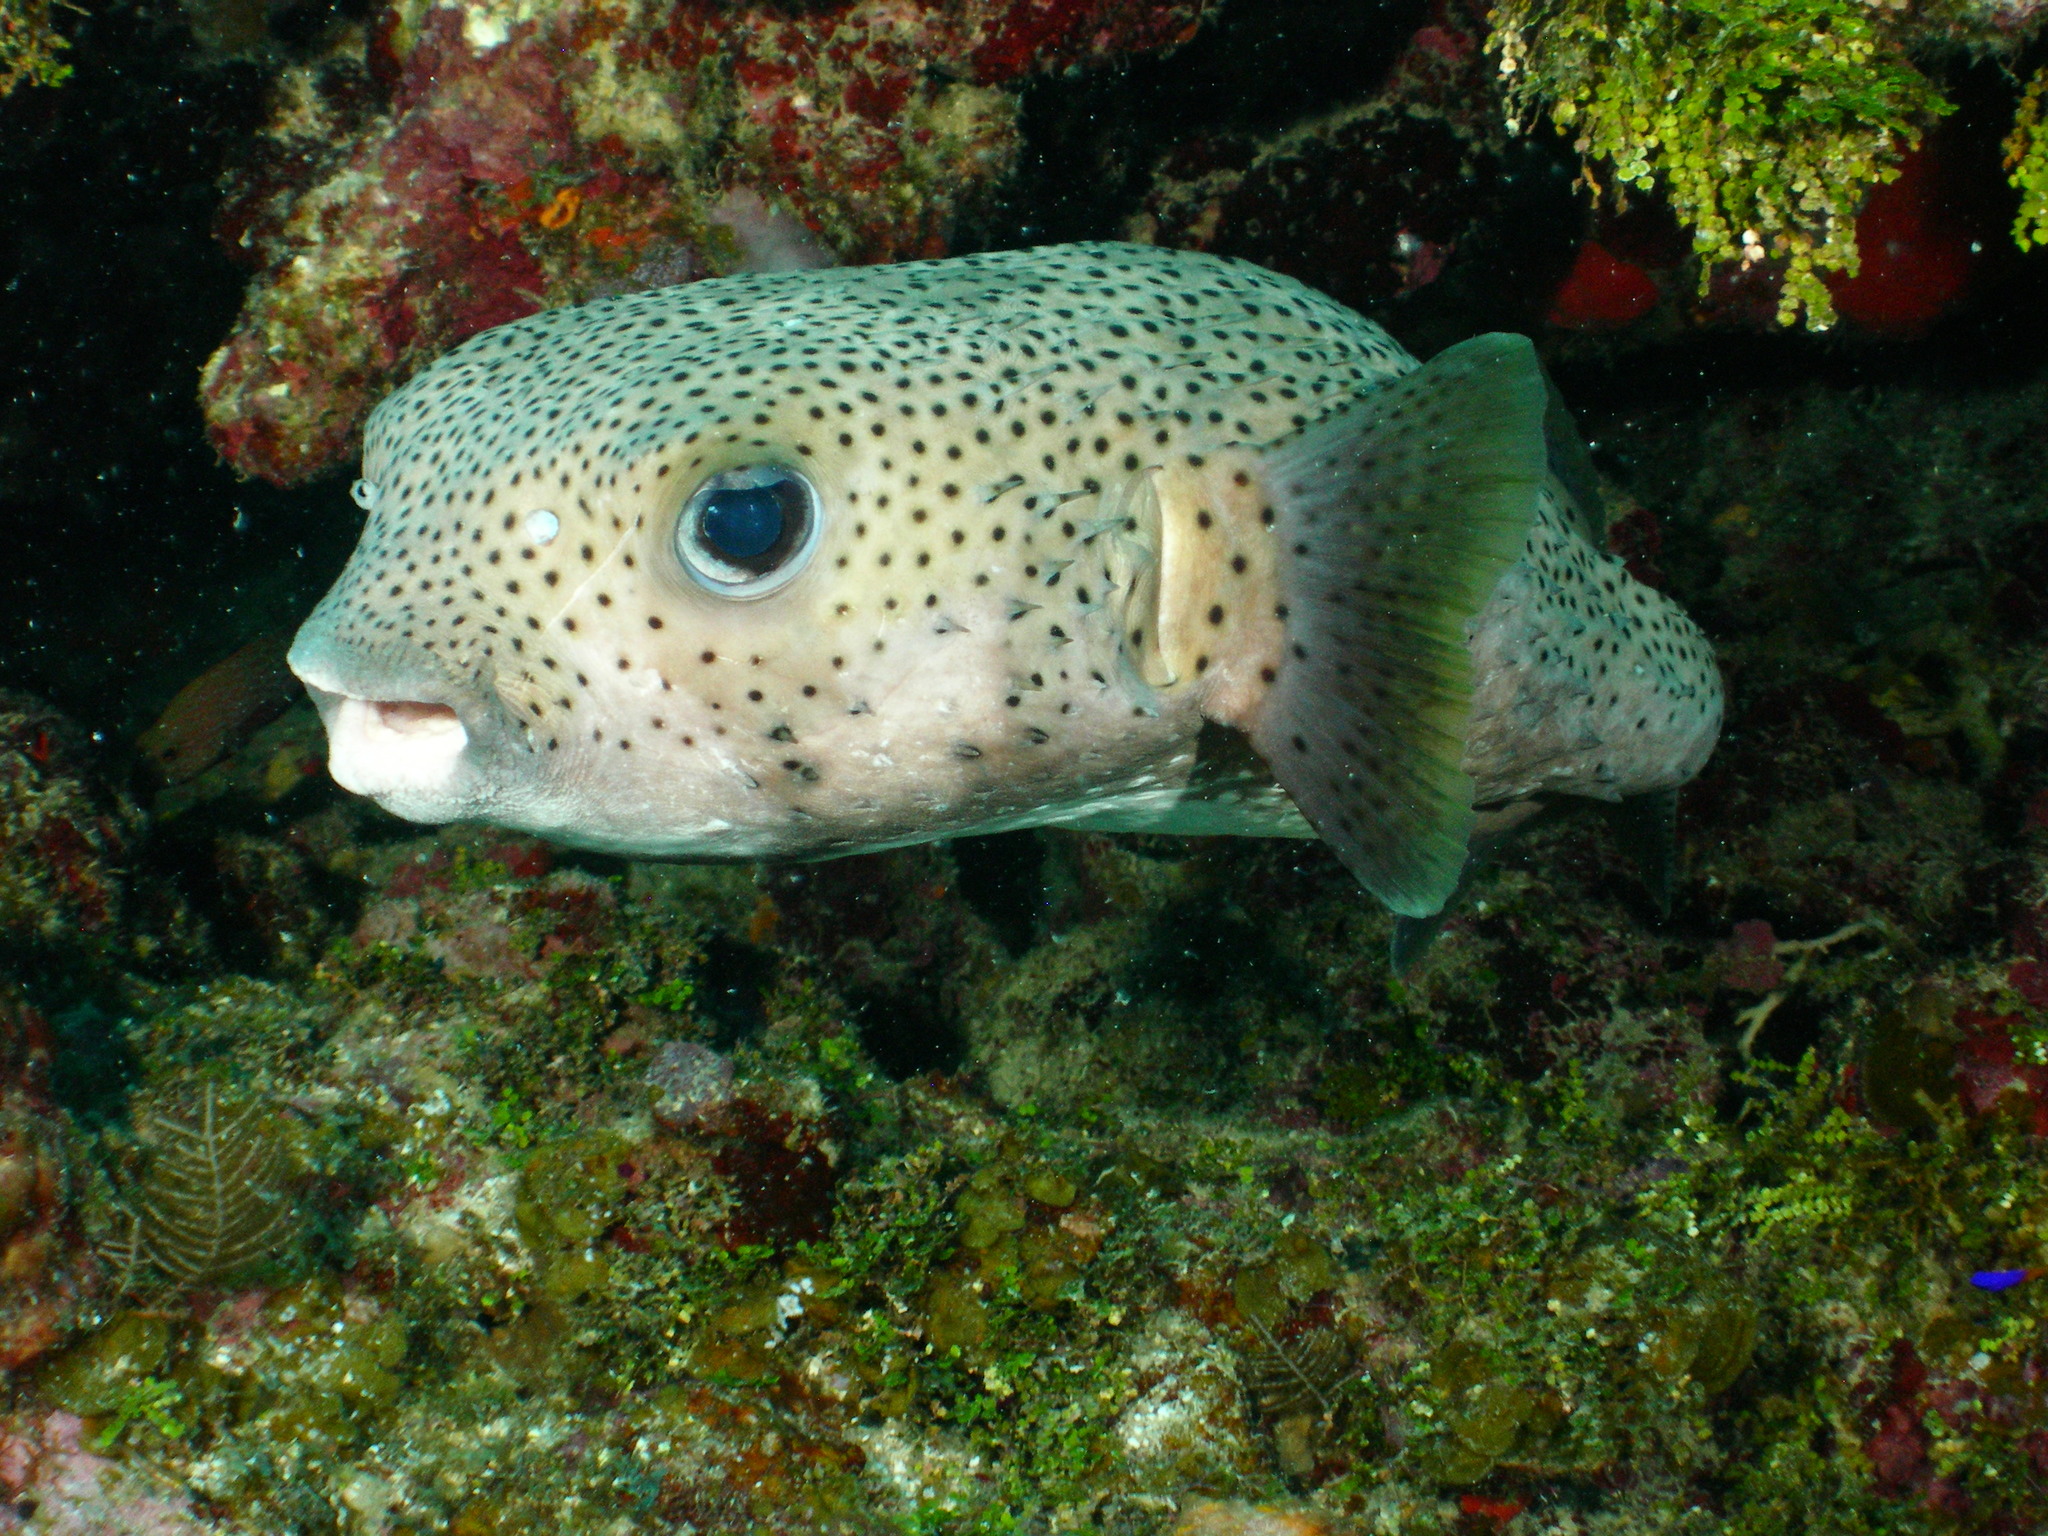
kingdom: Animalia
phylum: Chordata
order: Tetraodontiformes
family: Diodontidae
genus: Diodon
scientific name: Diodon hystrix
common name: Giant porcupinefish
